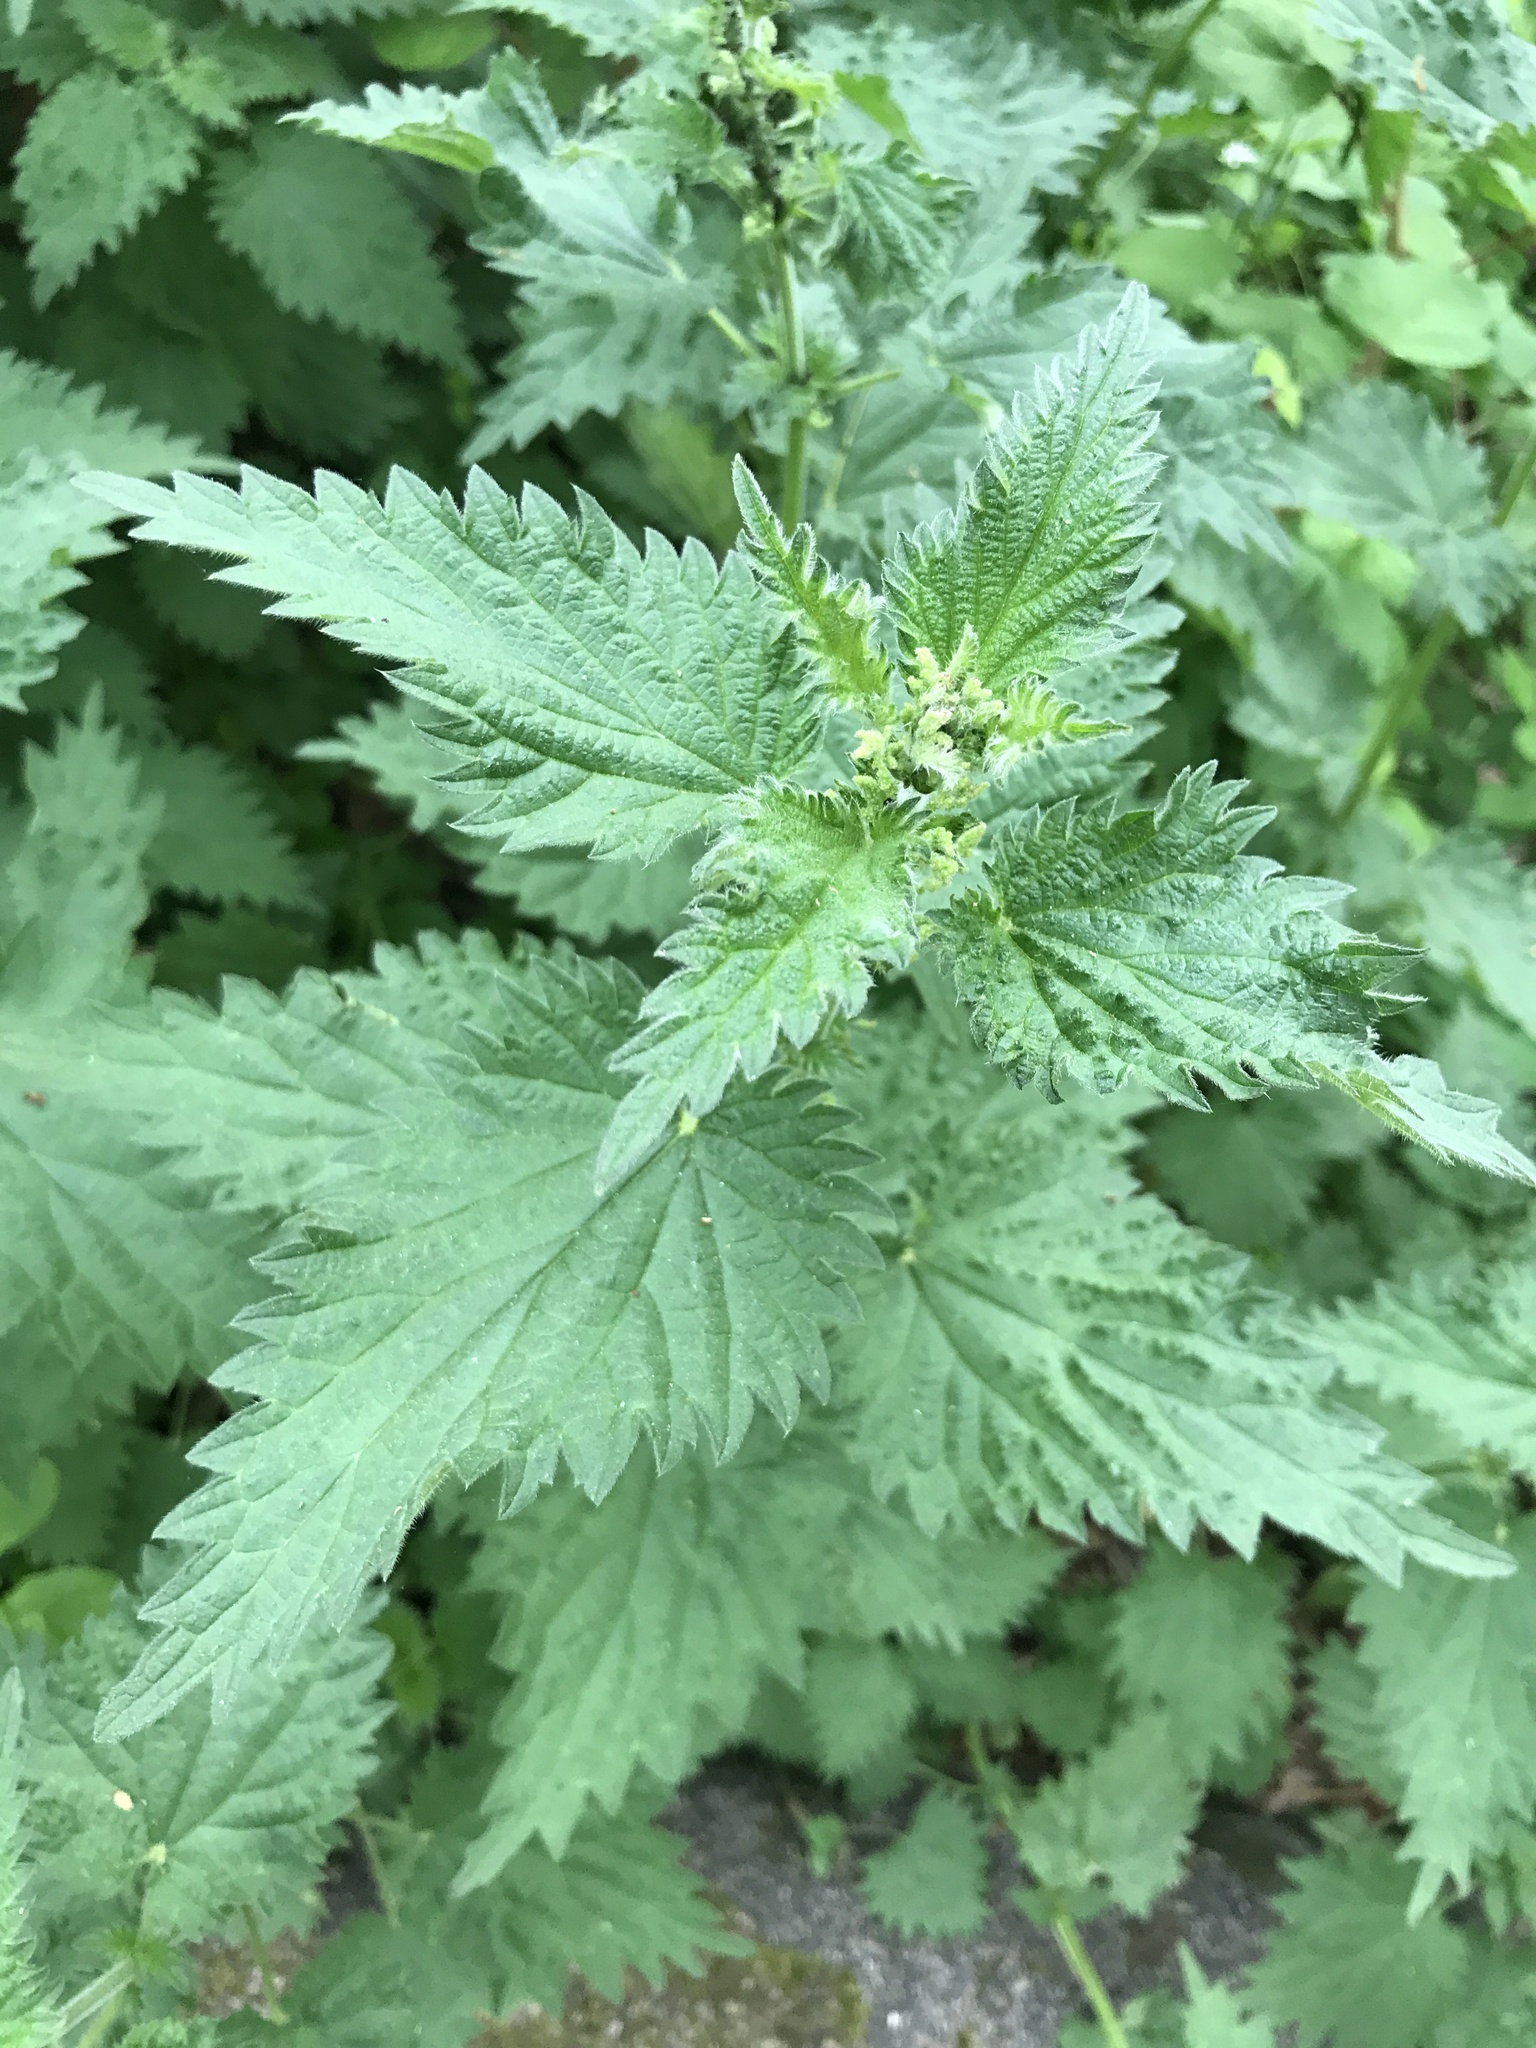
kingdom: Plantae
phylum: Tracheophyta
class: Magnoliopsida
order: Rosales
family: Urticaceae
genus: Urtica
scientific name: Urtica dioica
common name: Common nettle
